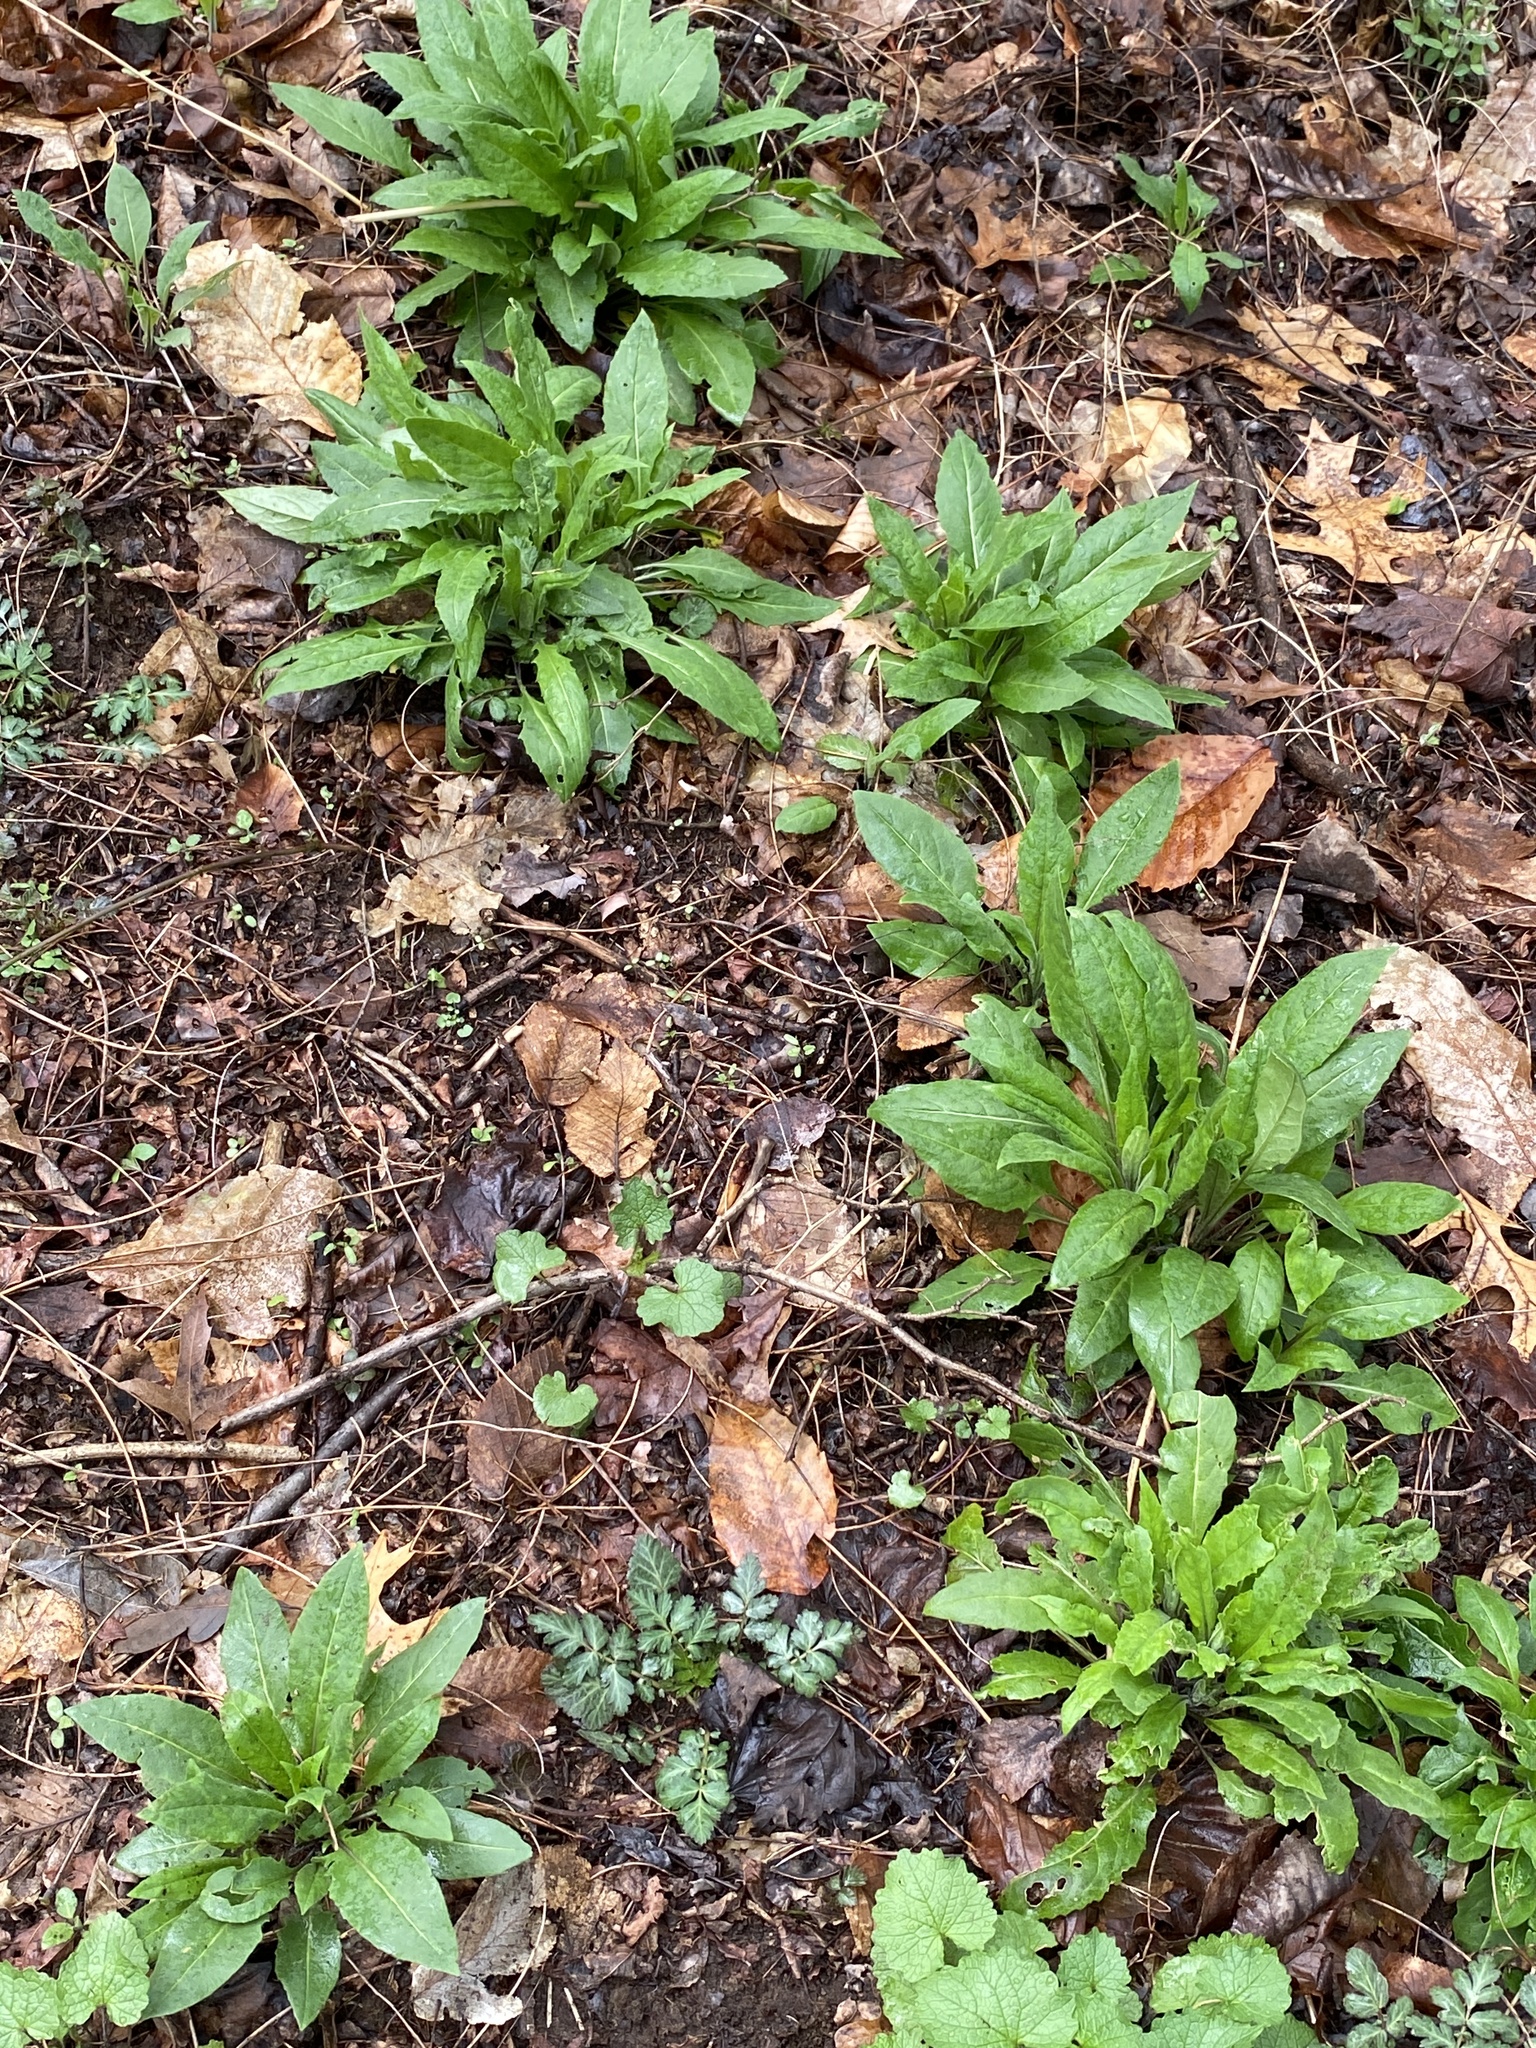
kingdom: Plantae
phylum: Tracheophyta
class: Magnoliopsida
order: Brassicales
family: Brassicaceae
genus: Hesperis
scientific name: Hesperis matronalis
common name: Dame's-violet
